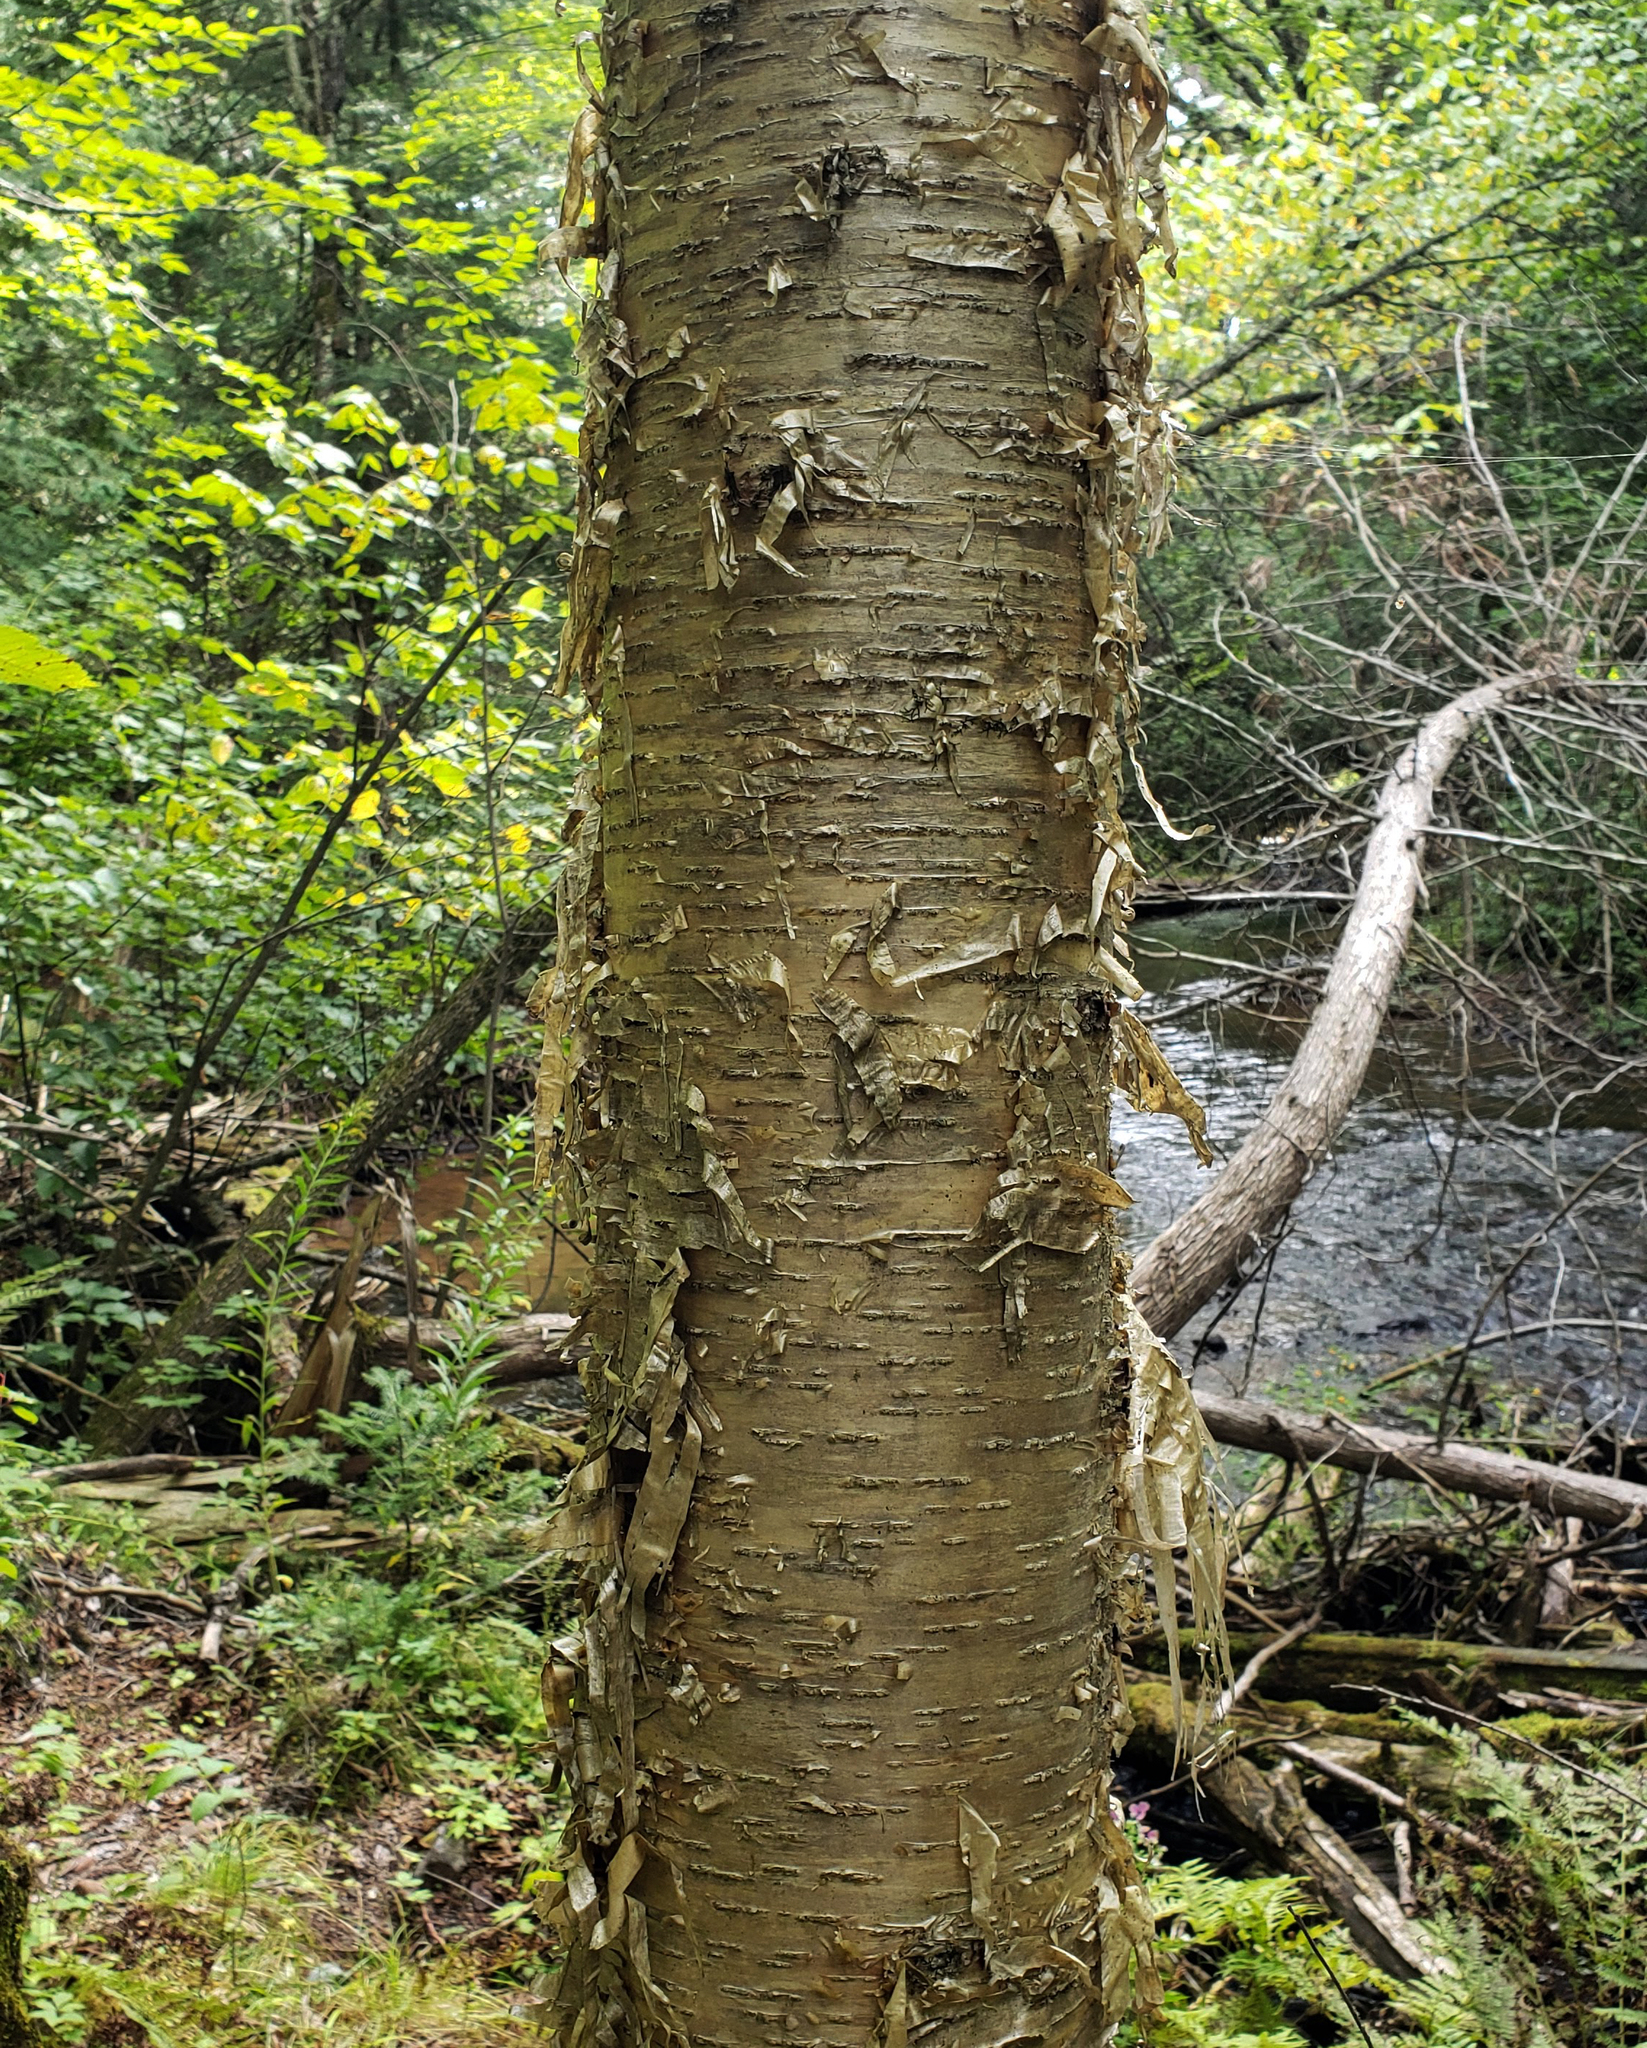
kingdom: Plantae
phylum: Tracheophyta
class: Magnoliopsida
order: Fagales
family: Betulaceae
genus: Betula
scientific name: Betula alleghaniensis
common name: Yellow birch
